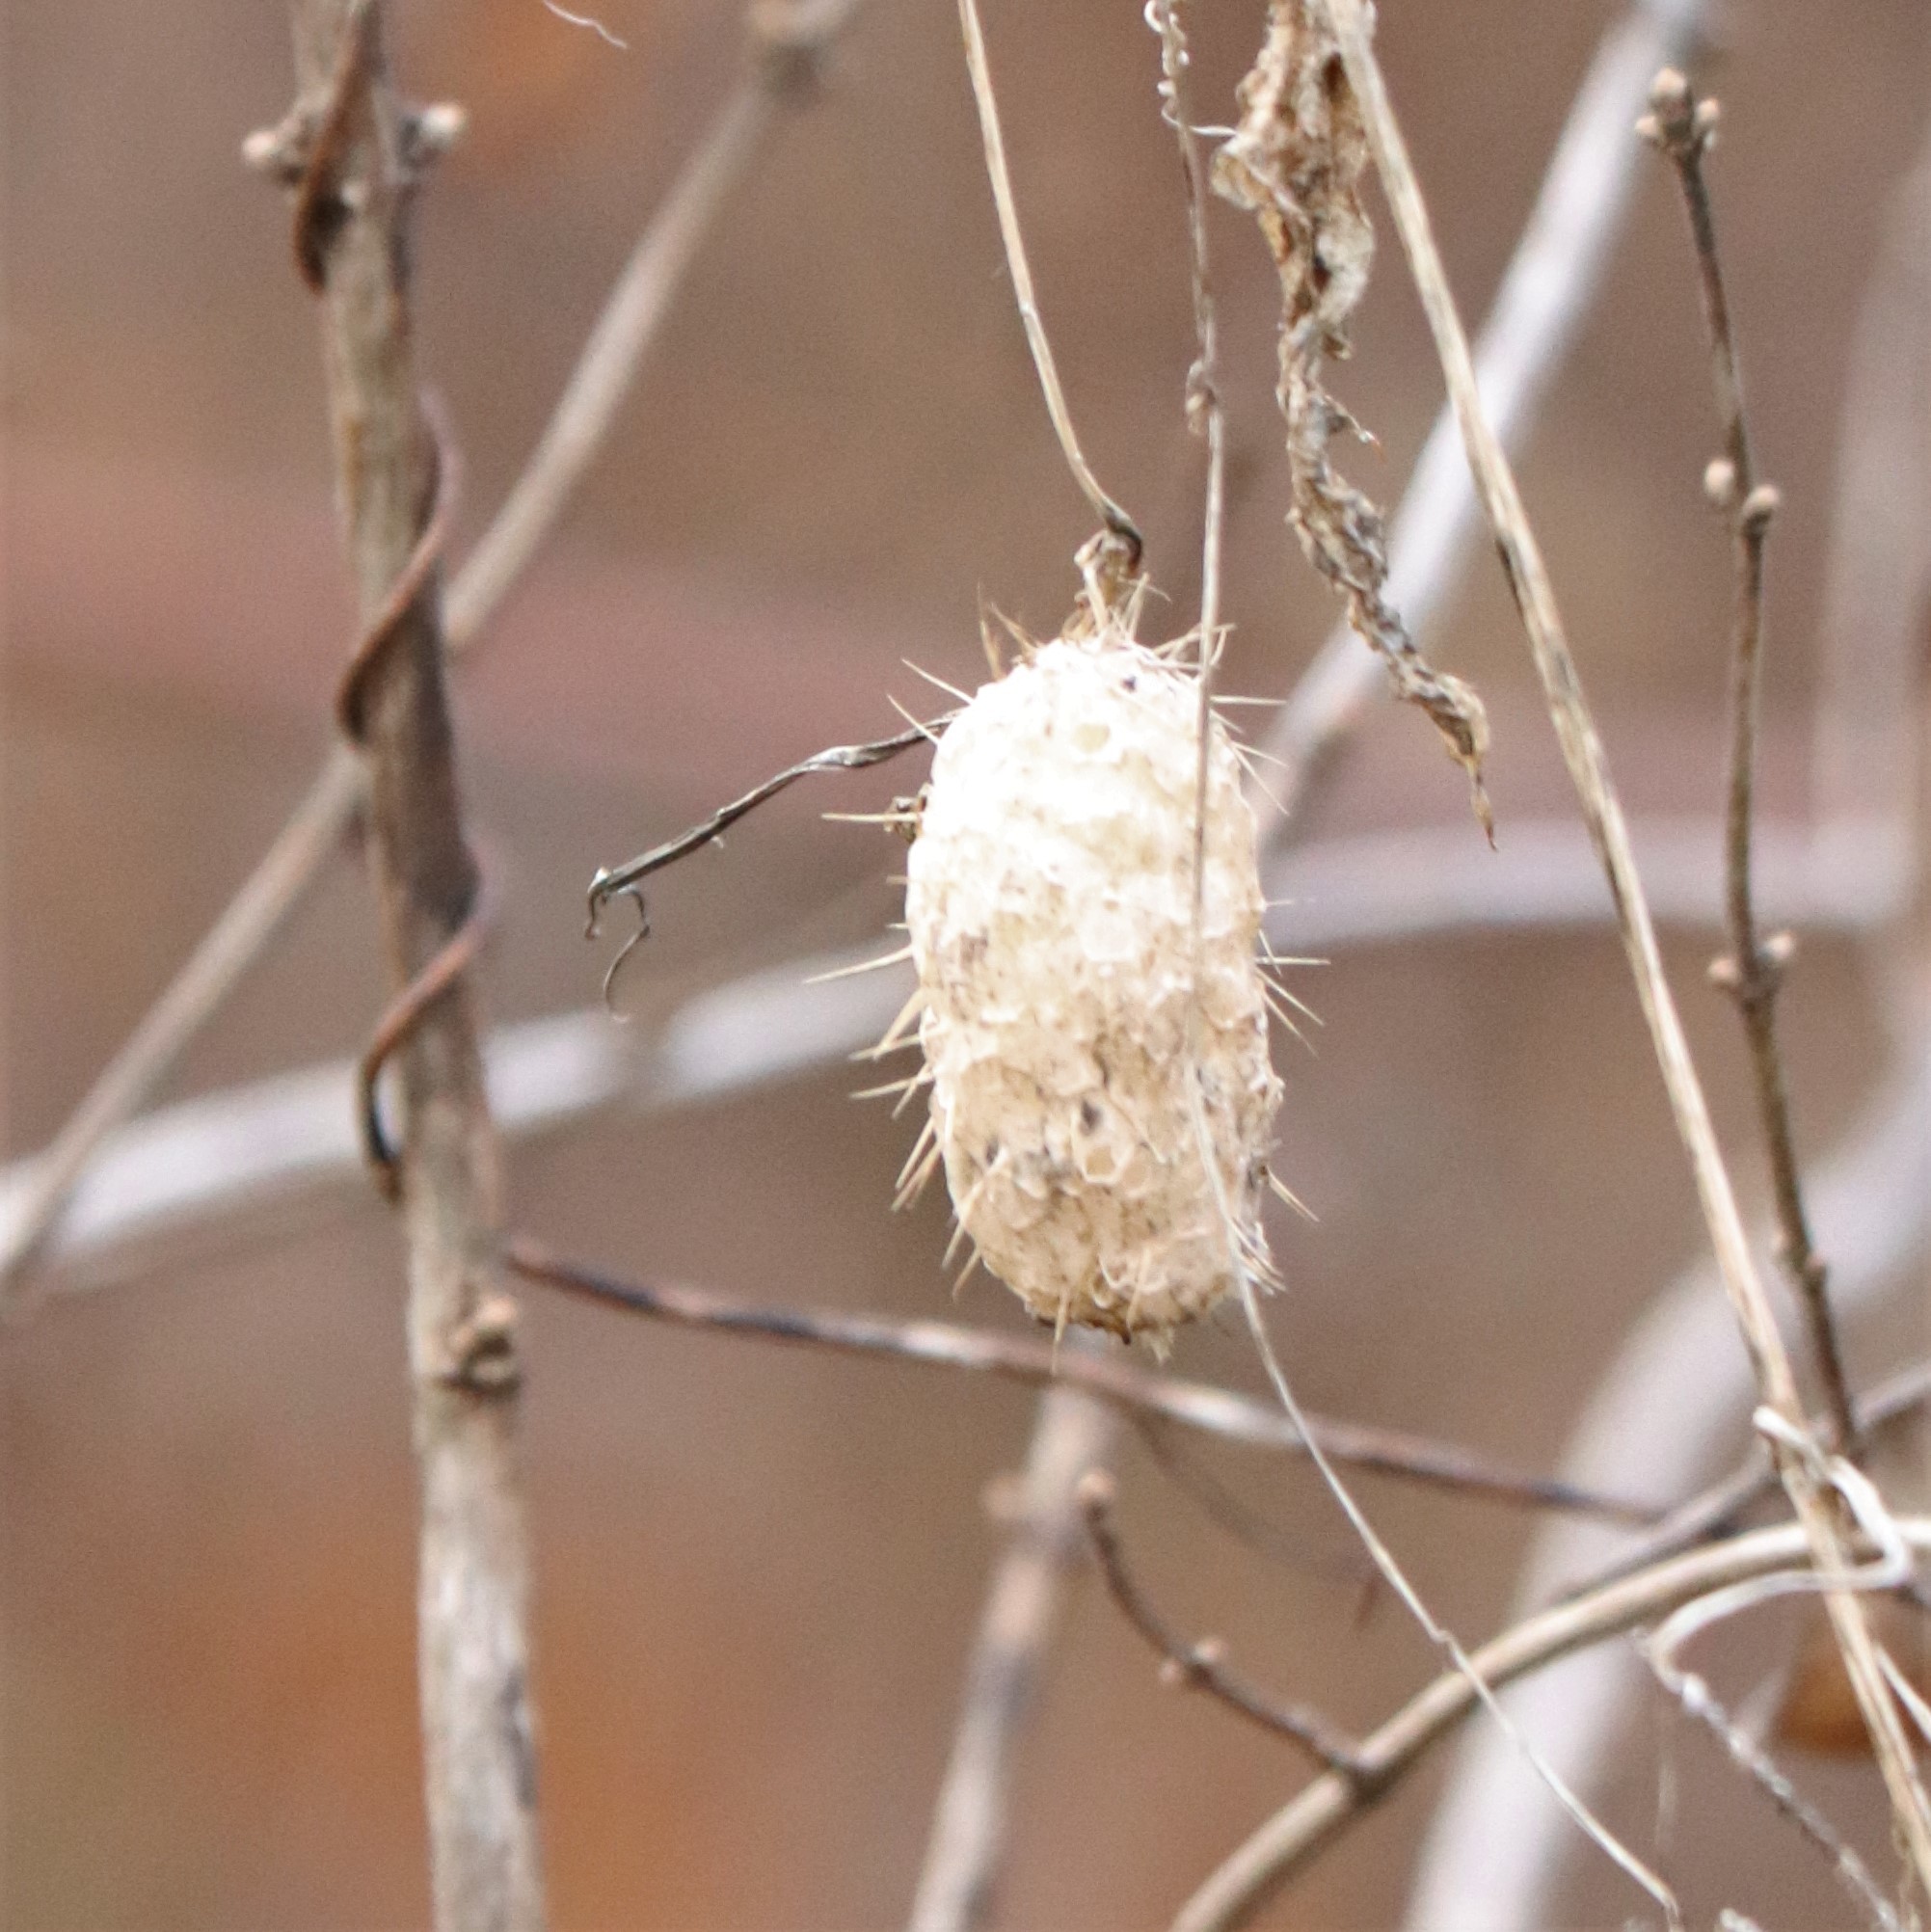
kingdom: Plantae
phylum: Tracheophyta
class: Magnoliopsida
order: Cucurbitales
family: Cucurbitaceae
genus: Echinocystis
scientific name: Echinocystis lobata
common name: Wild cucumber
